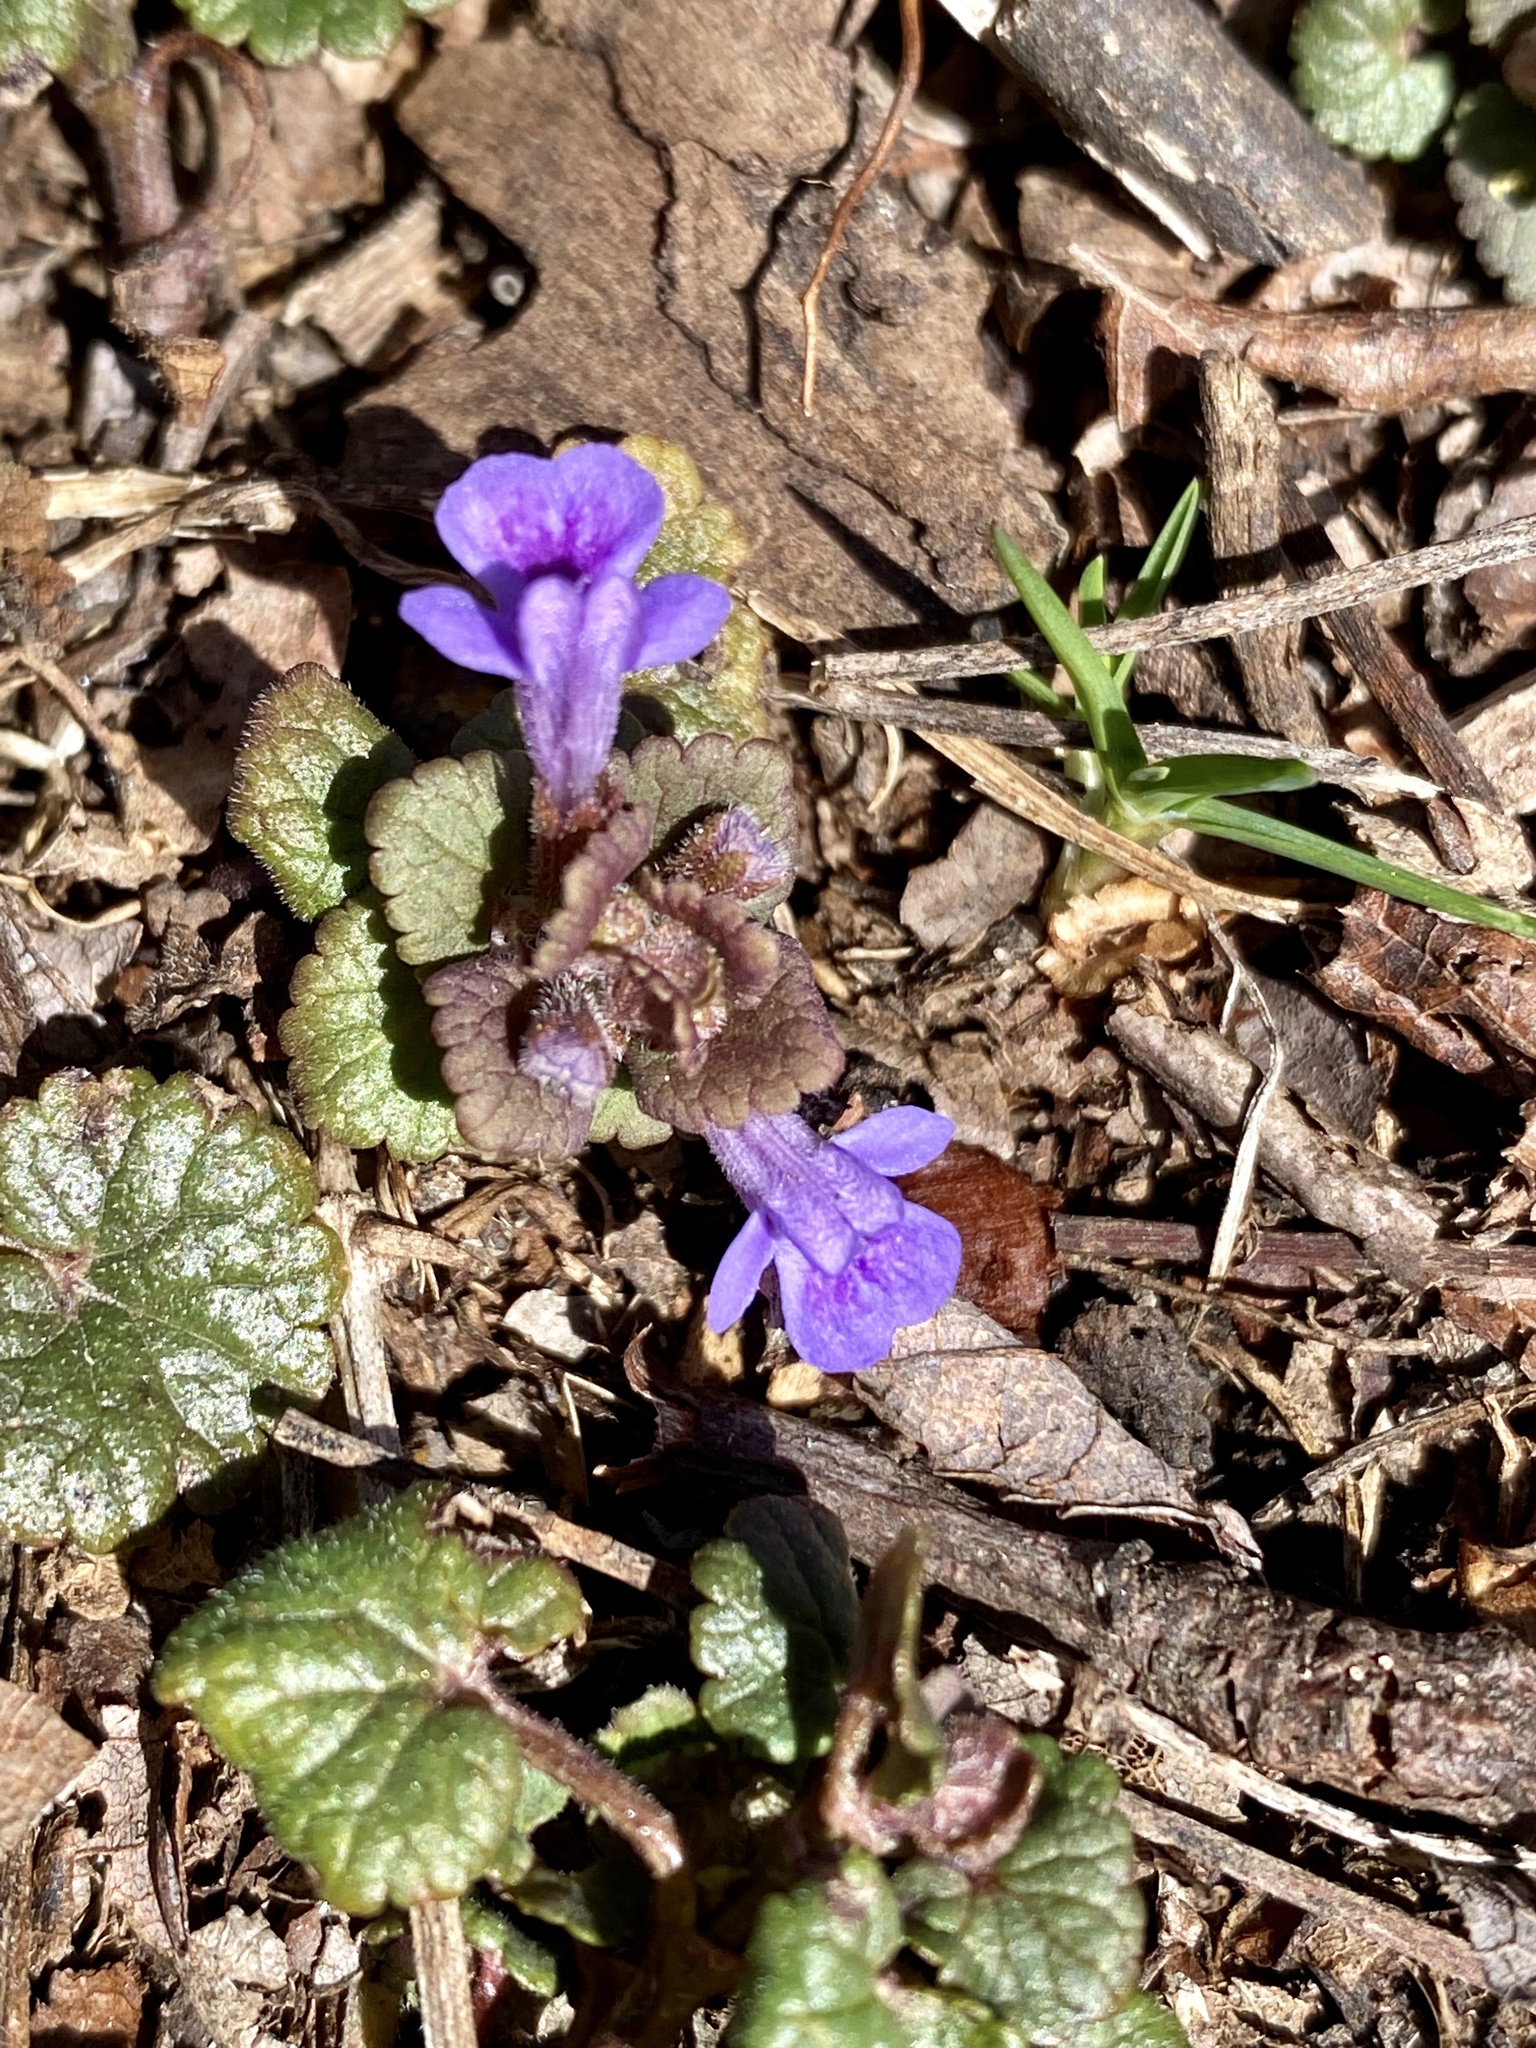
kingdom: Plantae
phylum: Tracheophyta
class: Magnoliopsida
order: Lamiales
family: Lamiaceae
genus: Glechoma
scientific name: Glechoma hederacea
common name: Ground ivy
